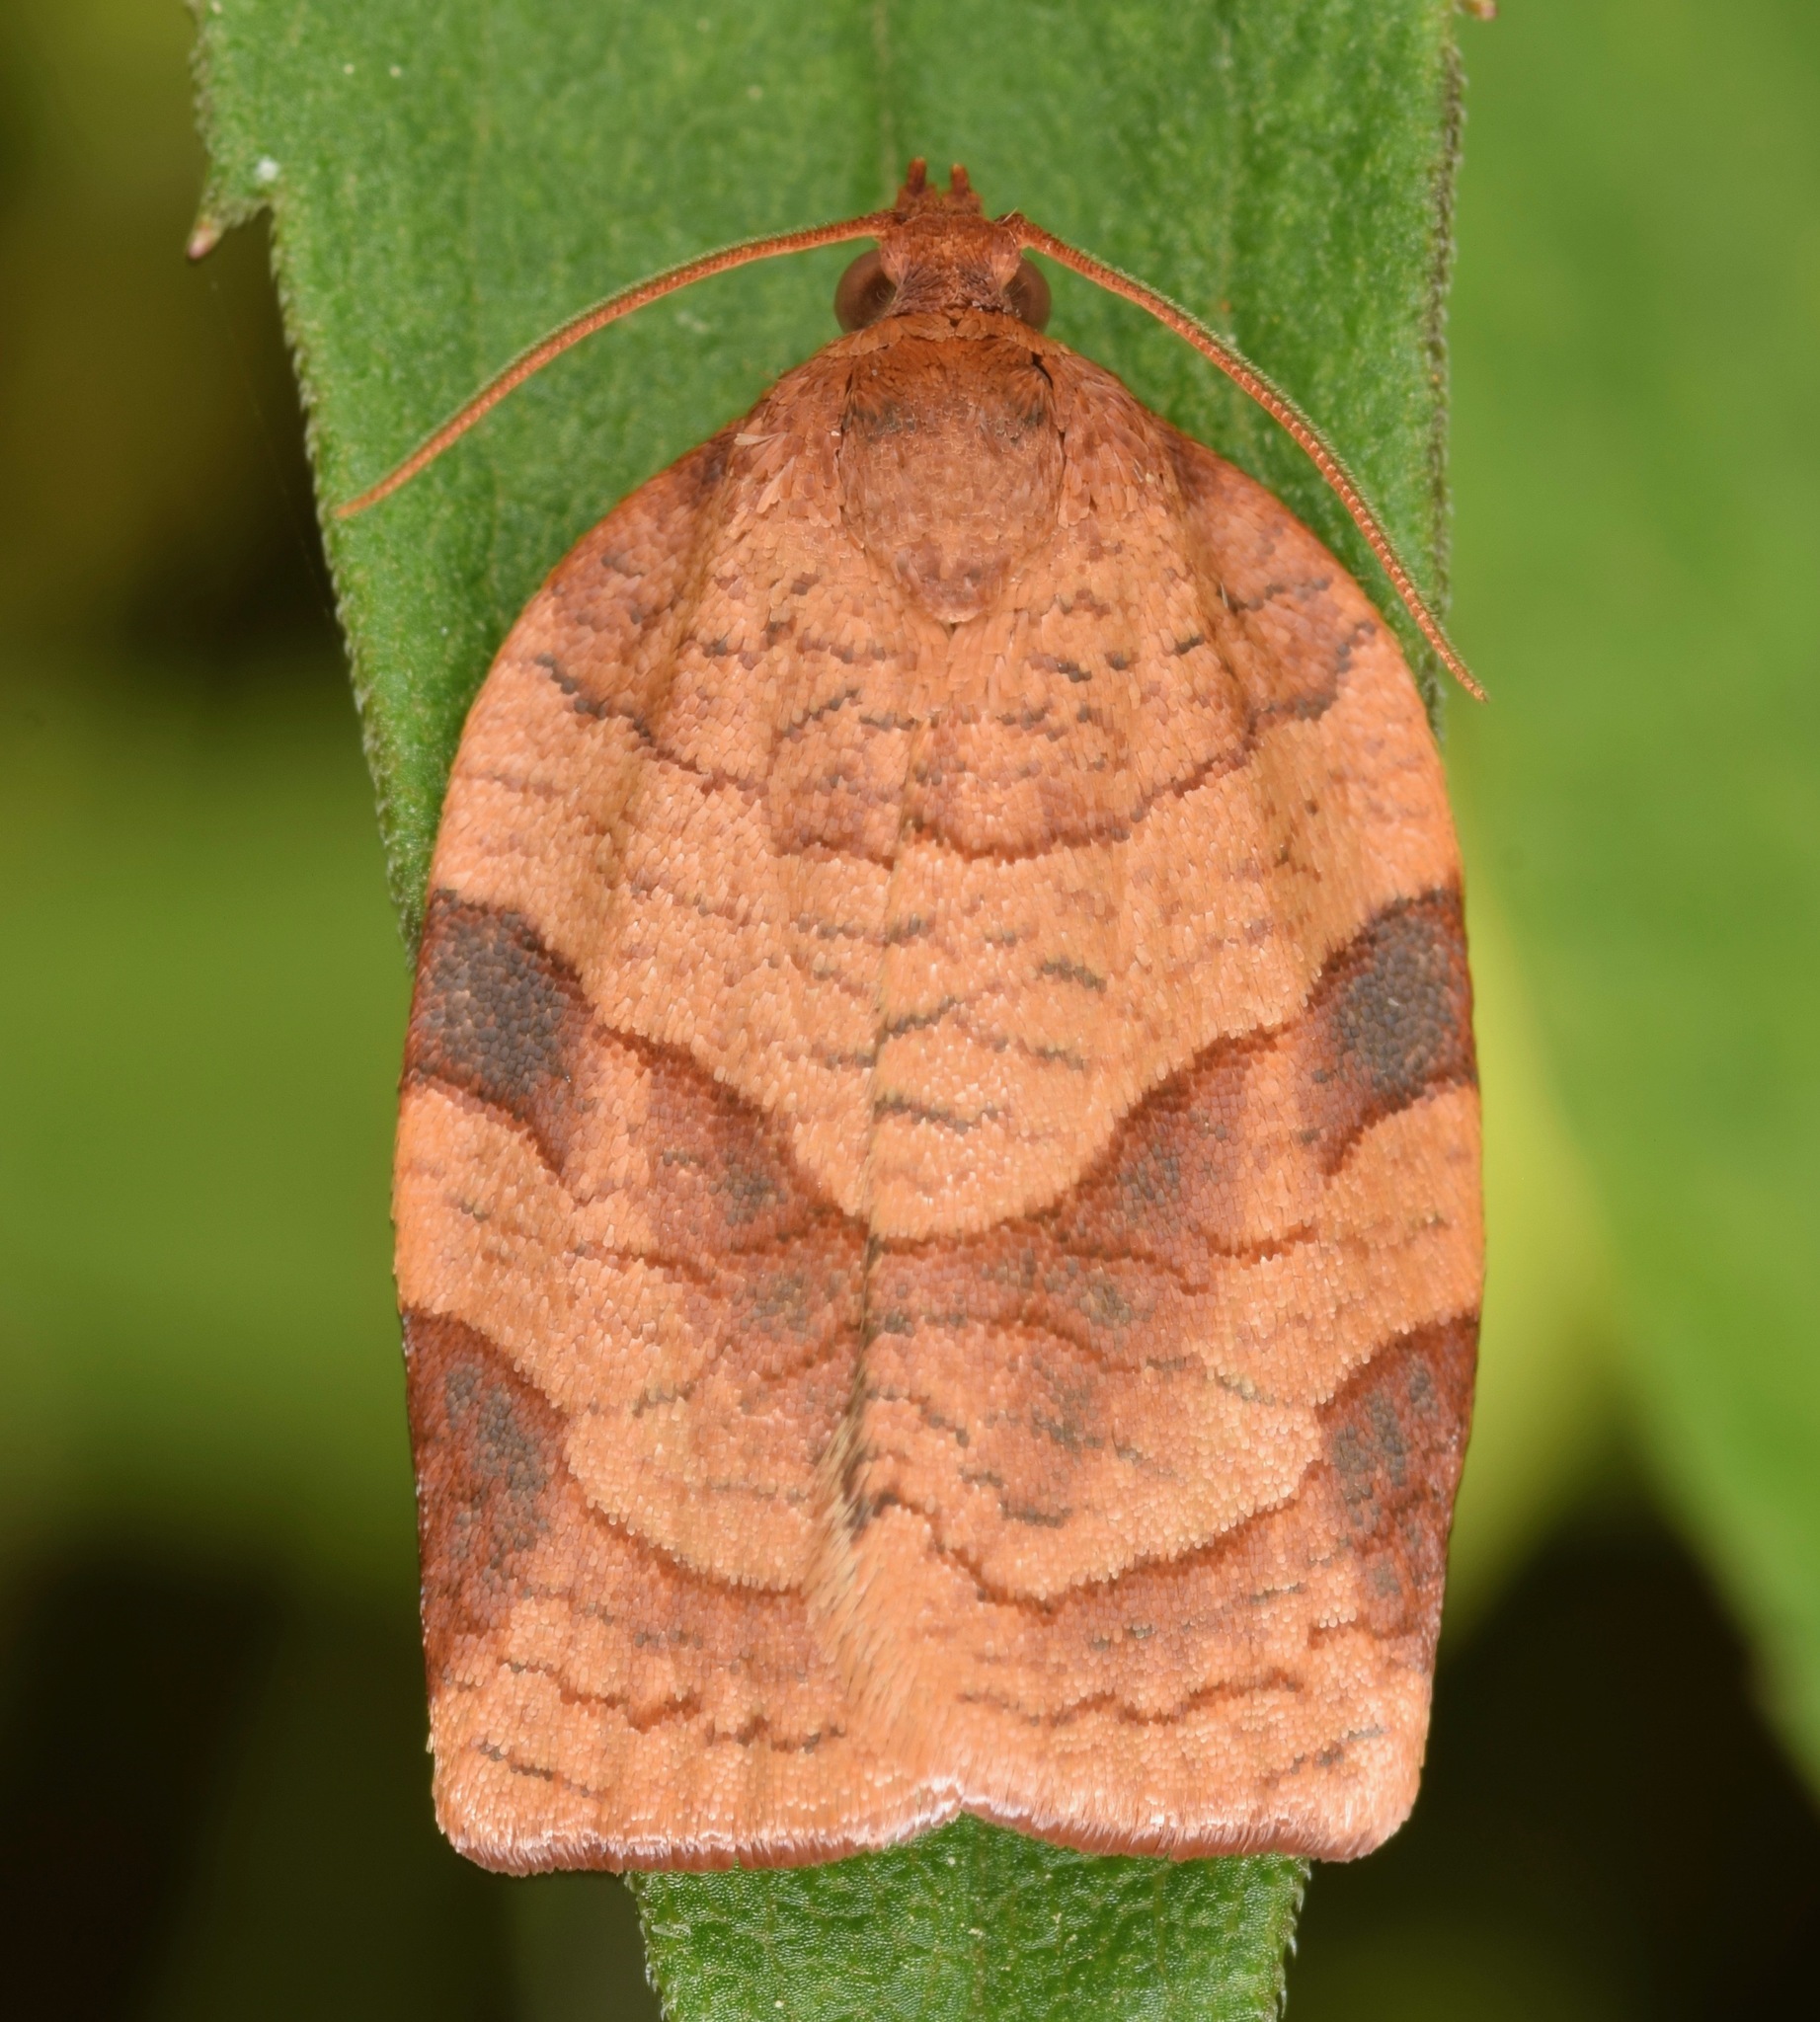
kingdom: Animalia
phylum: Arthropoda
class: Insecta
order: Lepidoptera
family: Tortricidae
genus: Choristoneura
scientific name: Choristoneura parallela
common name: Parallel-banded leafroller moth
